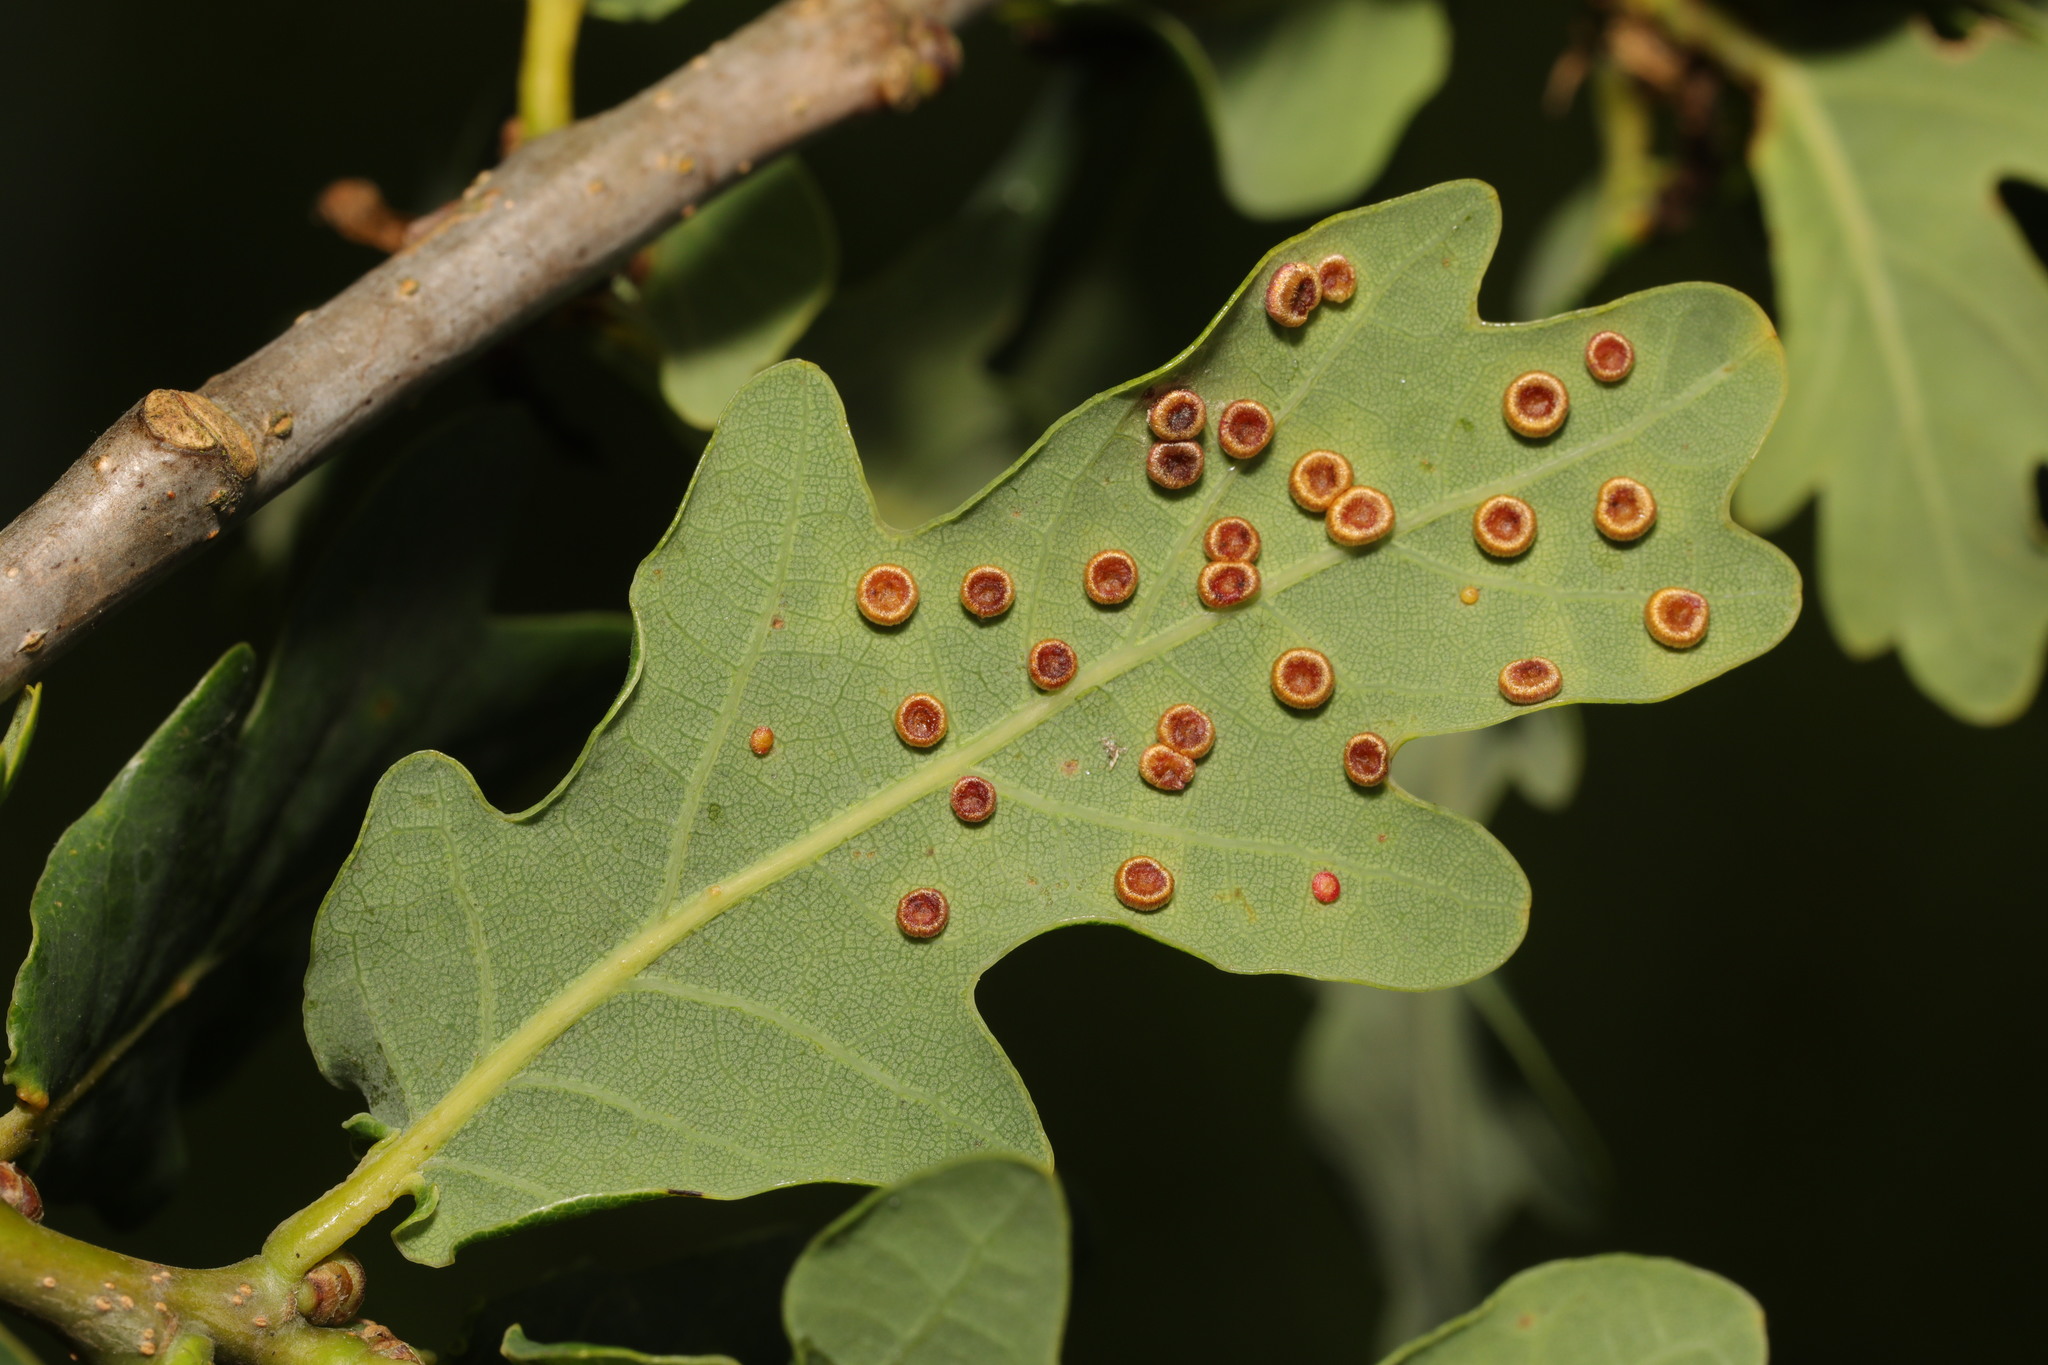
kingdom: Animalia
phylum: Arthropoda
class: Insecta
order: Hymenoptera
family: Cynipidae
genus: Neuroterus
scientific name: Neuroterus numismalis
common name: Silk-button spangle gall
